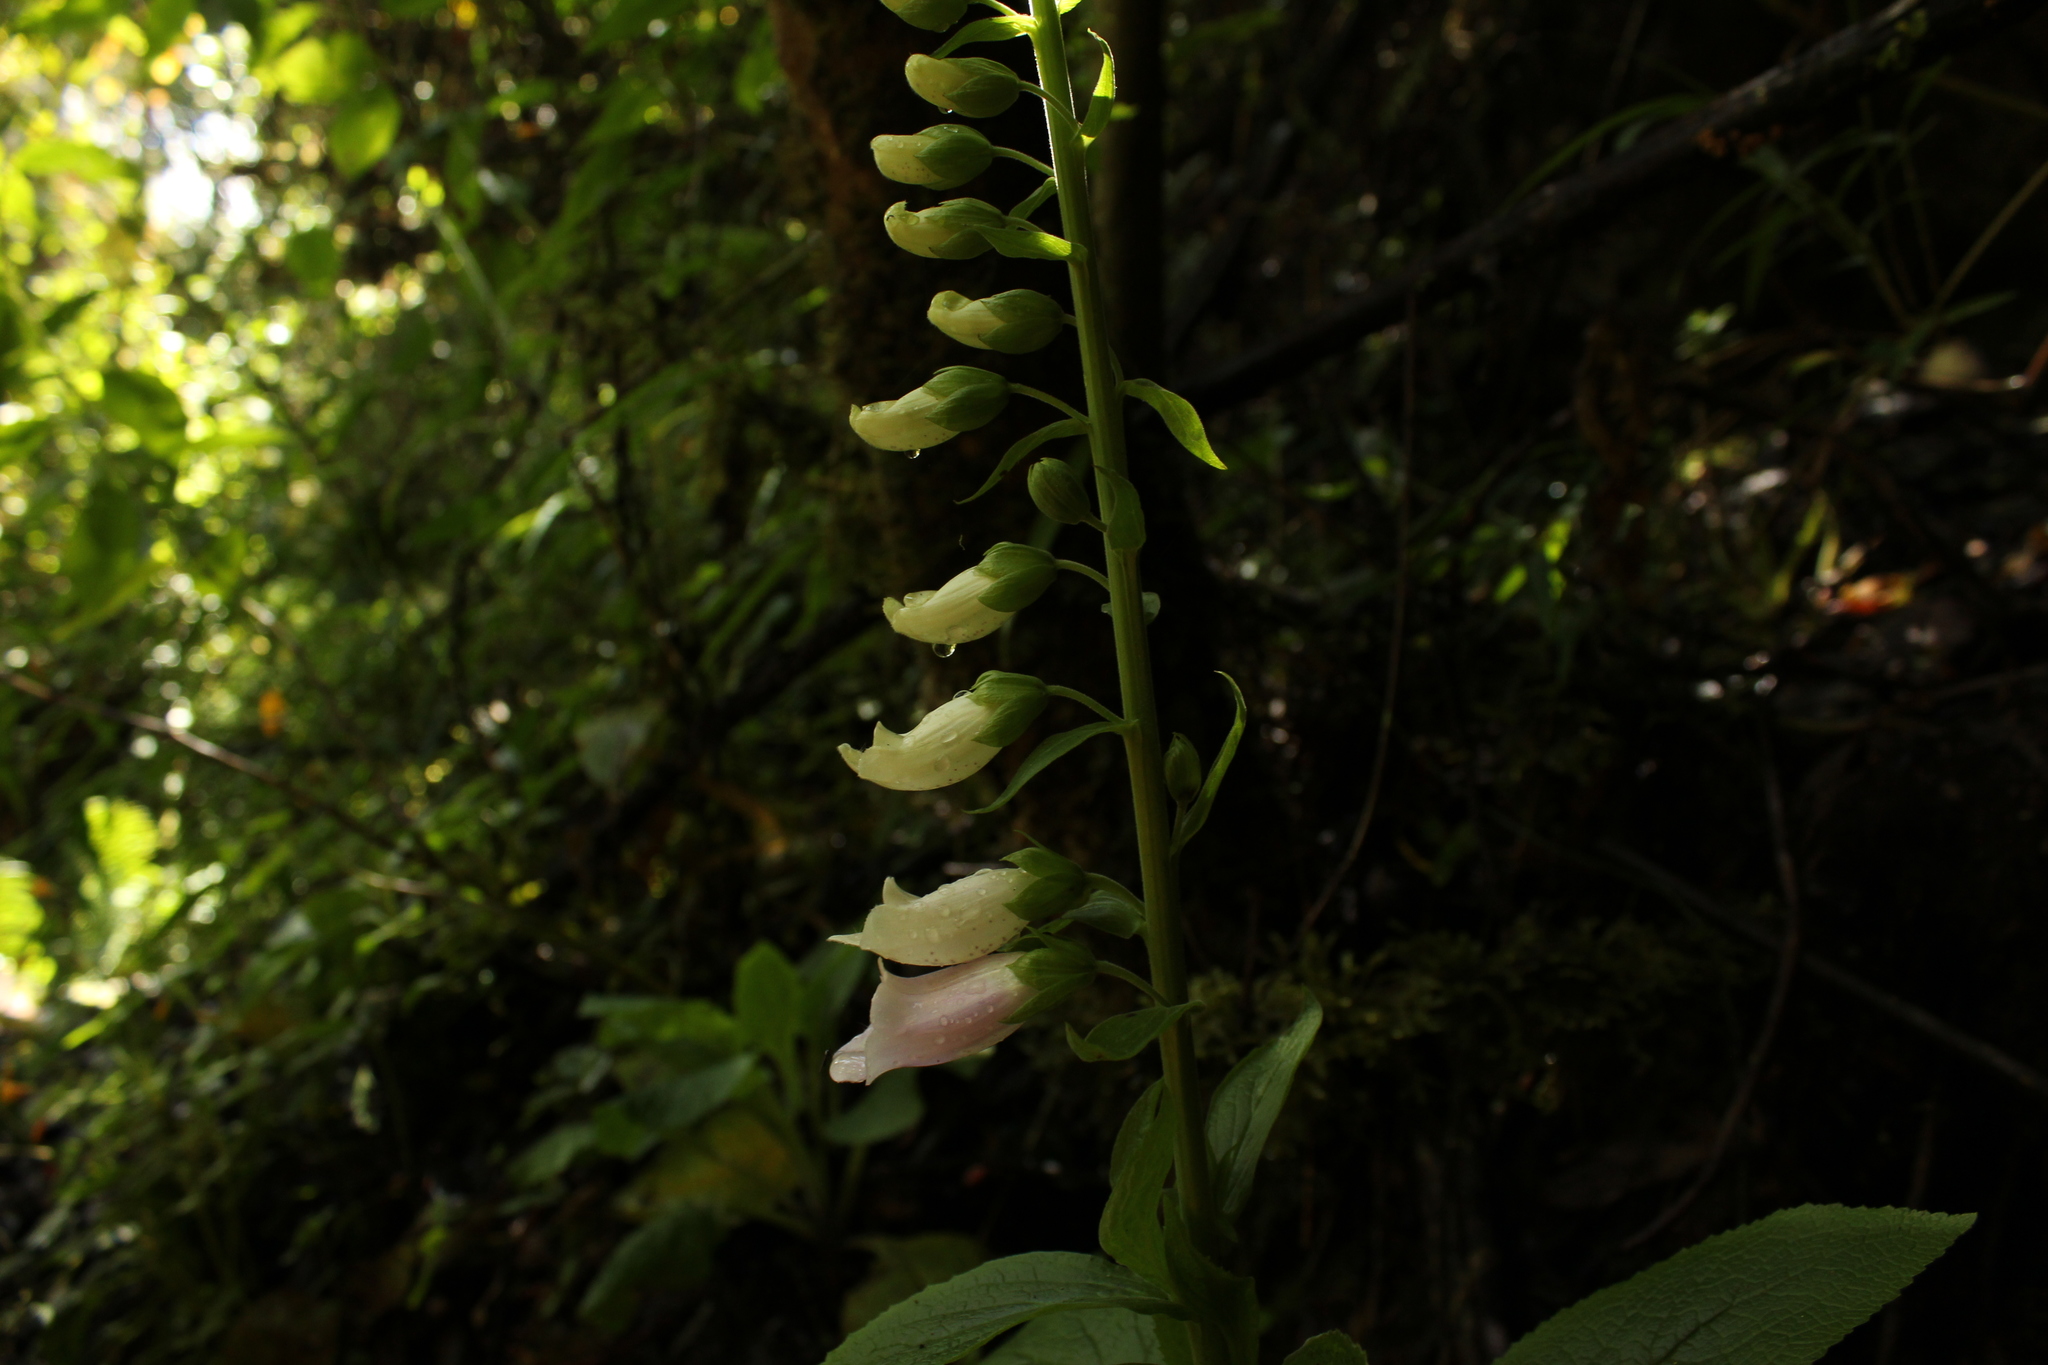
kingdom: Plantae
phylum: Tracheophyta
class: Magnoliopsida
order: Lamiales
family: Plantaginaceae
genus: Digitalis
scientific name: Digitalis purpurea
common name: Foxglove
